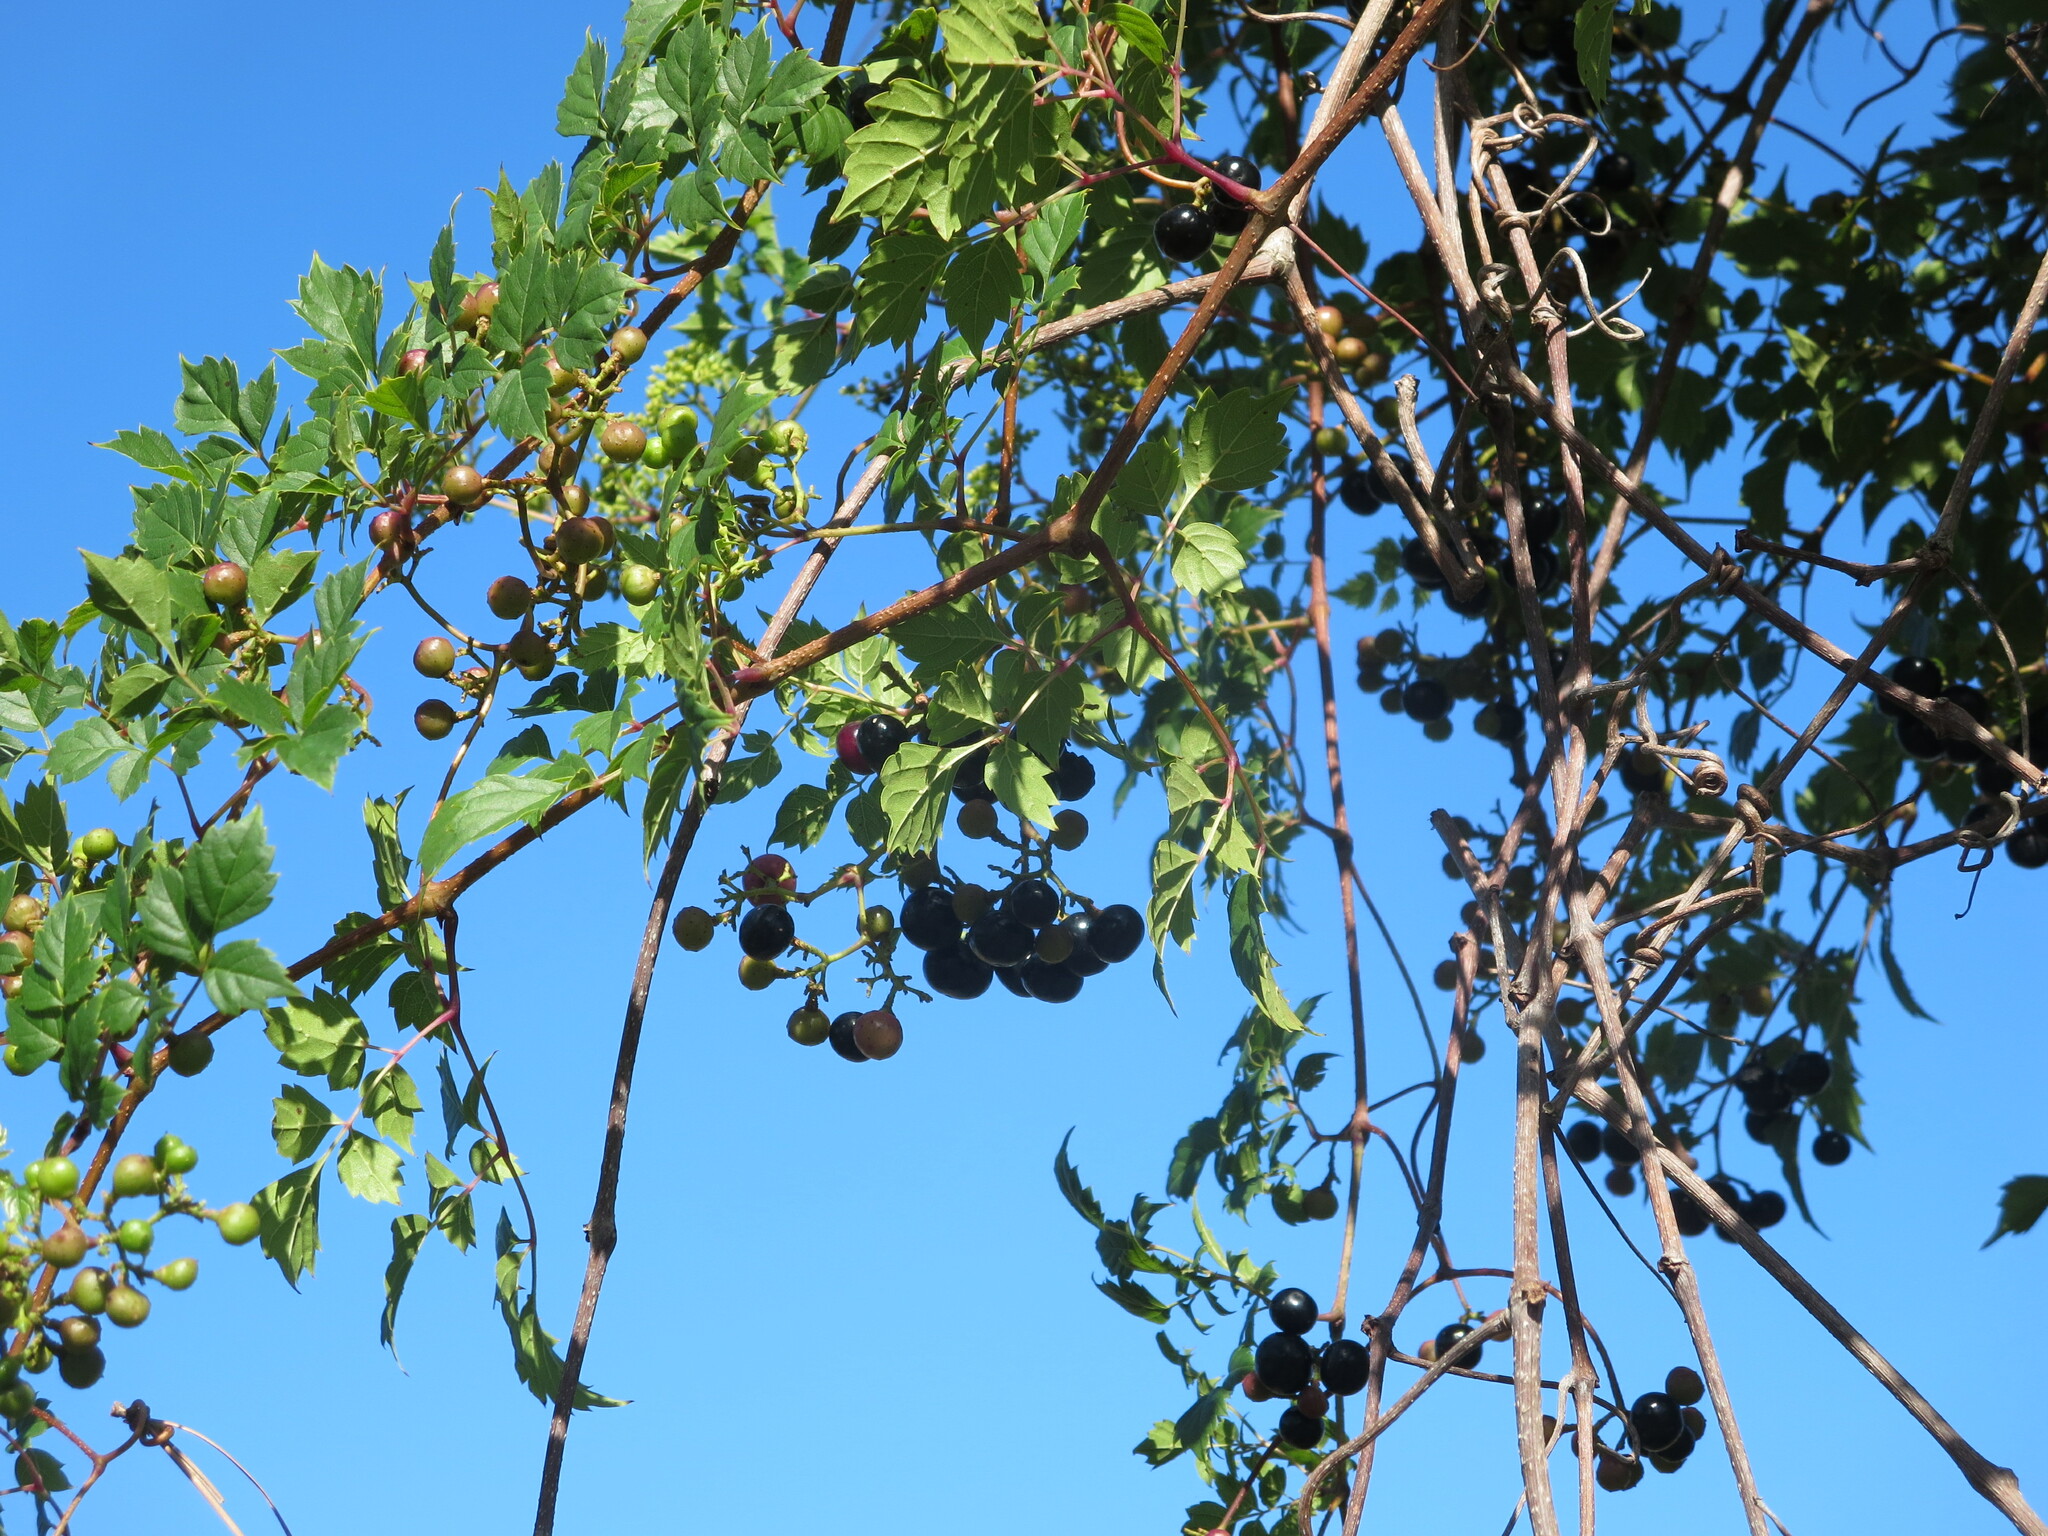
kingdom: Plantae
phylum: Tracheophyta
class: Magnoliopsida
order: Vitales
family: Vitaceae
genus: Nekemias
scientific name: Nekemias arborea
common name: Peppervine
